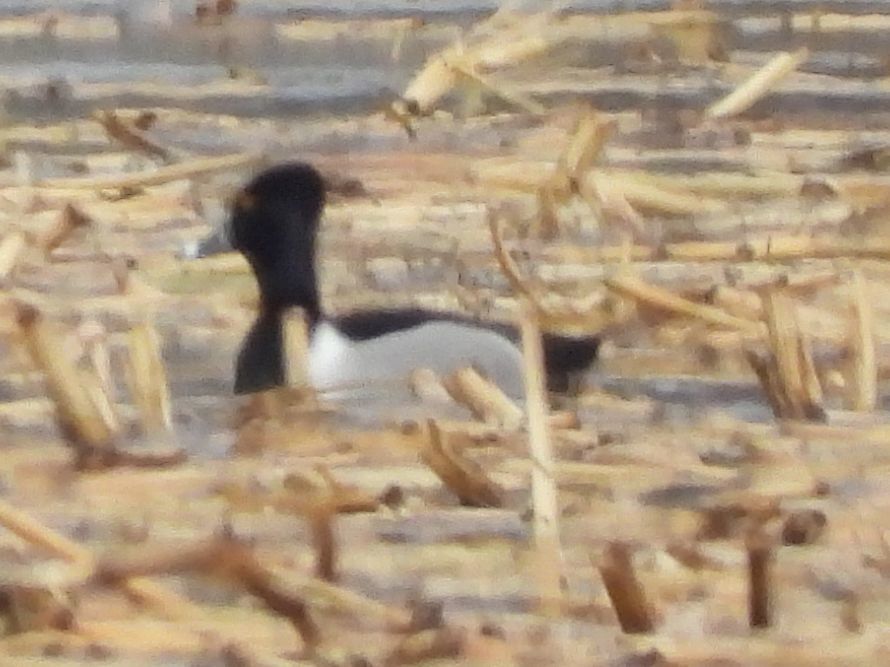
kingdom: Animalia
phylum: Chordata
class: Aves
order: Anseriformes
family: Anatidae
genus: Aythya
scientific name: Aythya collaris
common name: Ring-necked duck
